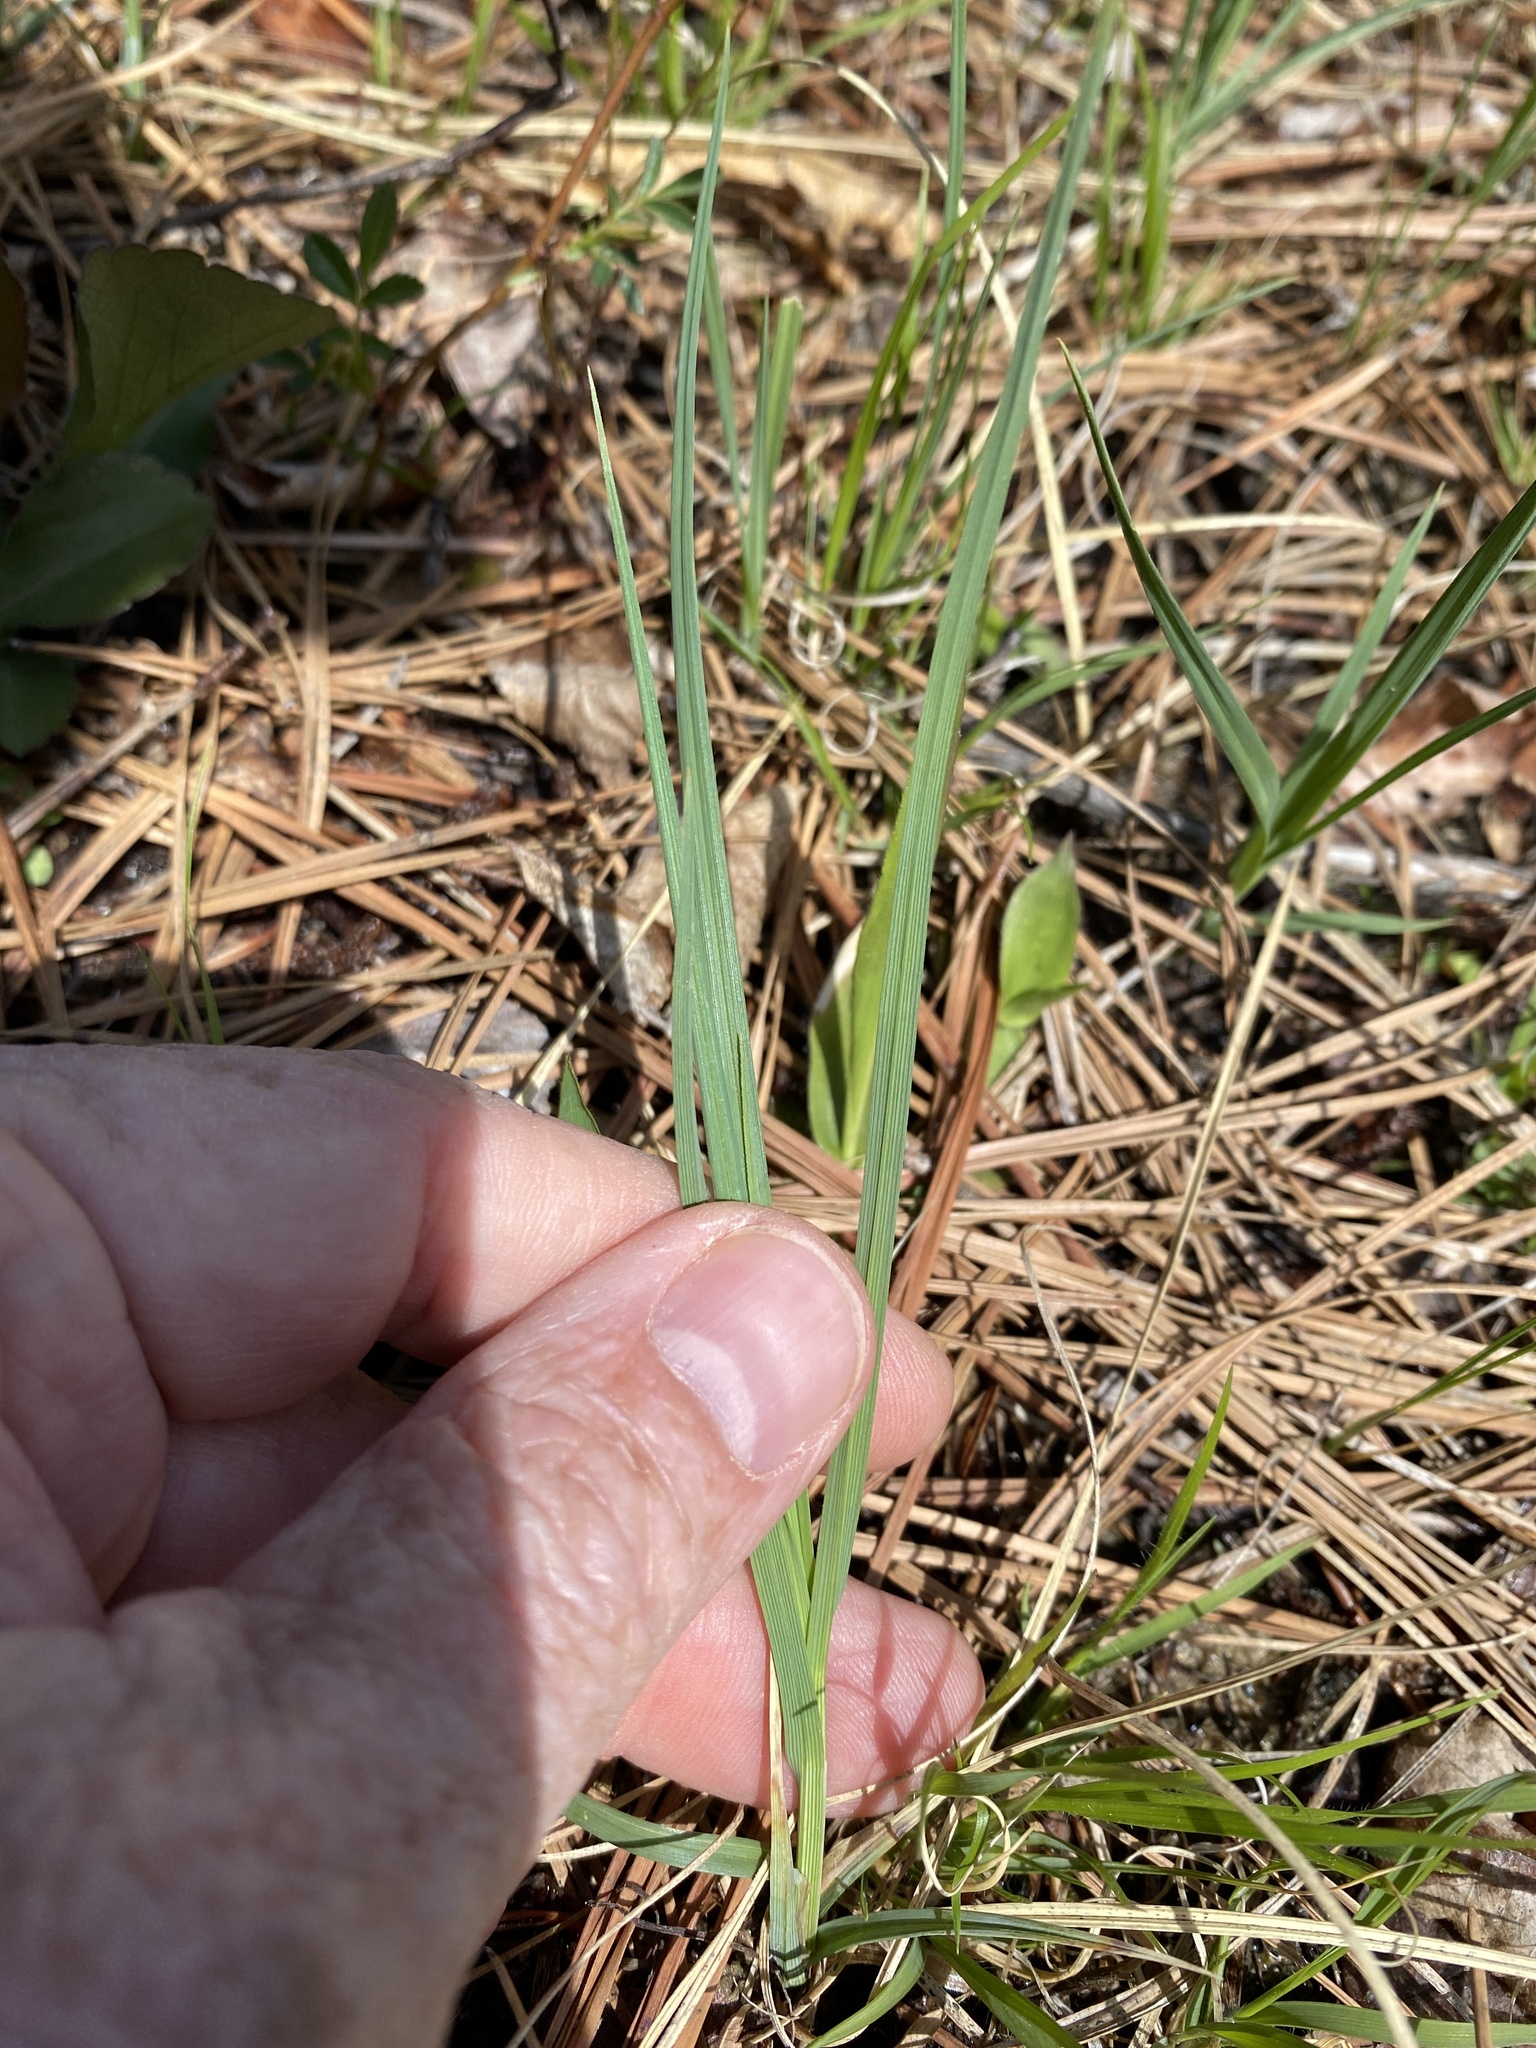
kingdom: Plantae
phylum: Tracheophyta
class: Liliopsida
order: Poales
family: Cyperaceae
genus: Carex
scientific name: Carex meadii
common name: Mead's sedge
